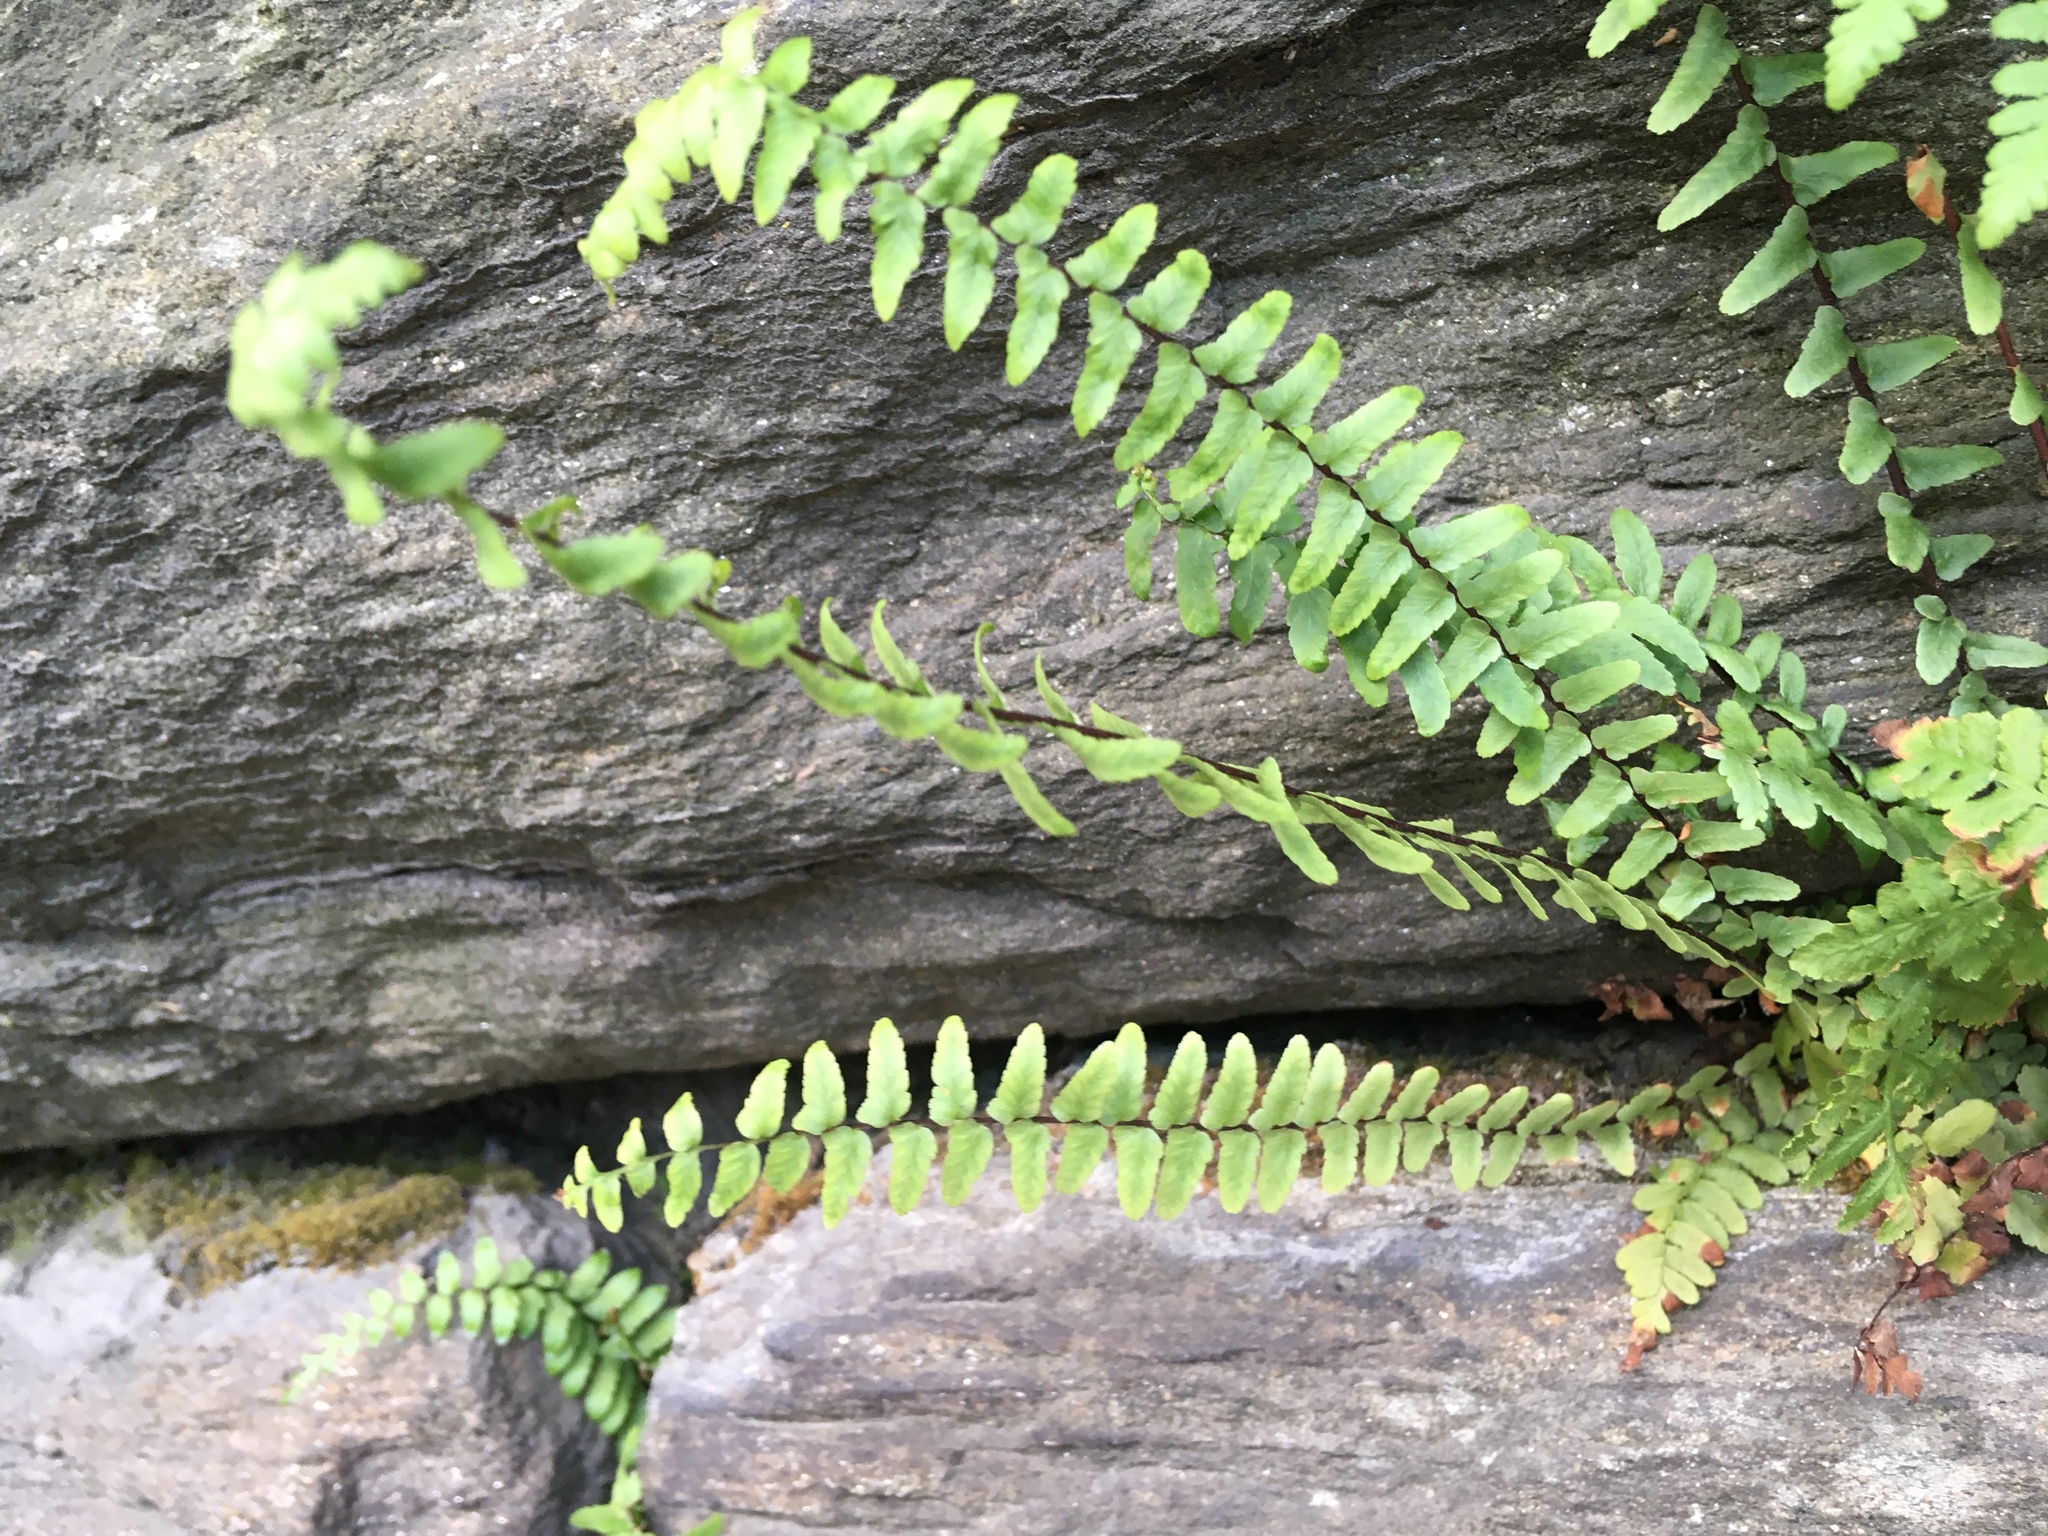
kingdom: Plantae
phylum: Tracheophyta
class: Polypodiopsida
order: Polypodiales
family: Aspleniaceae
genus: Asplenium
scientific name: Asplenium platyneuron
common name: Ebony spleenwort
